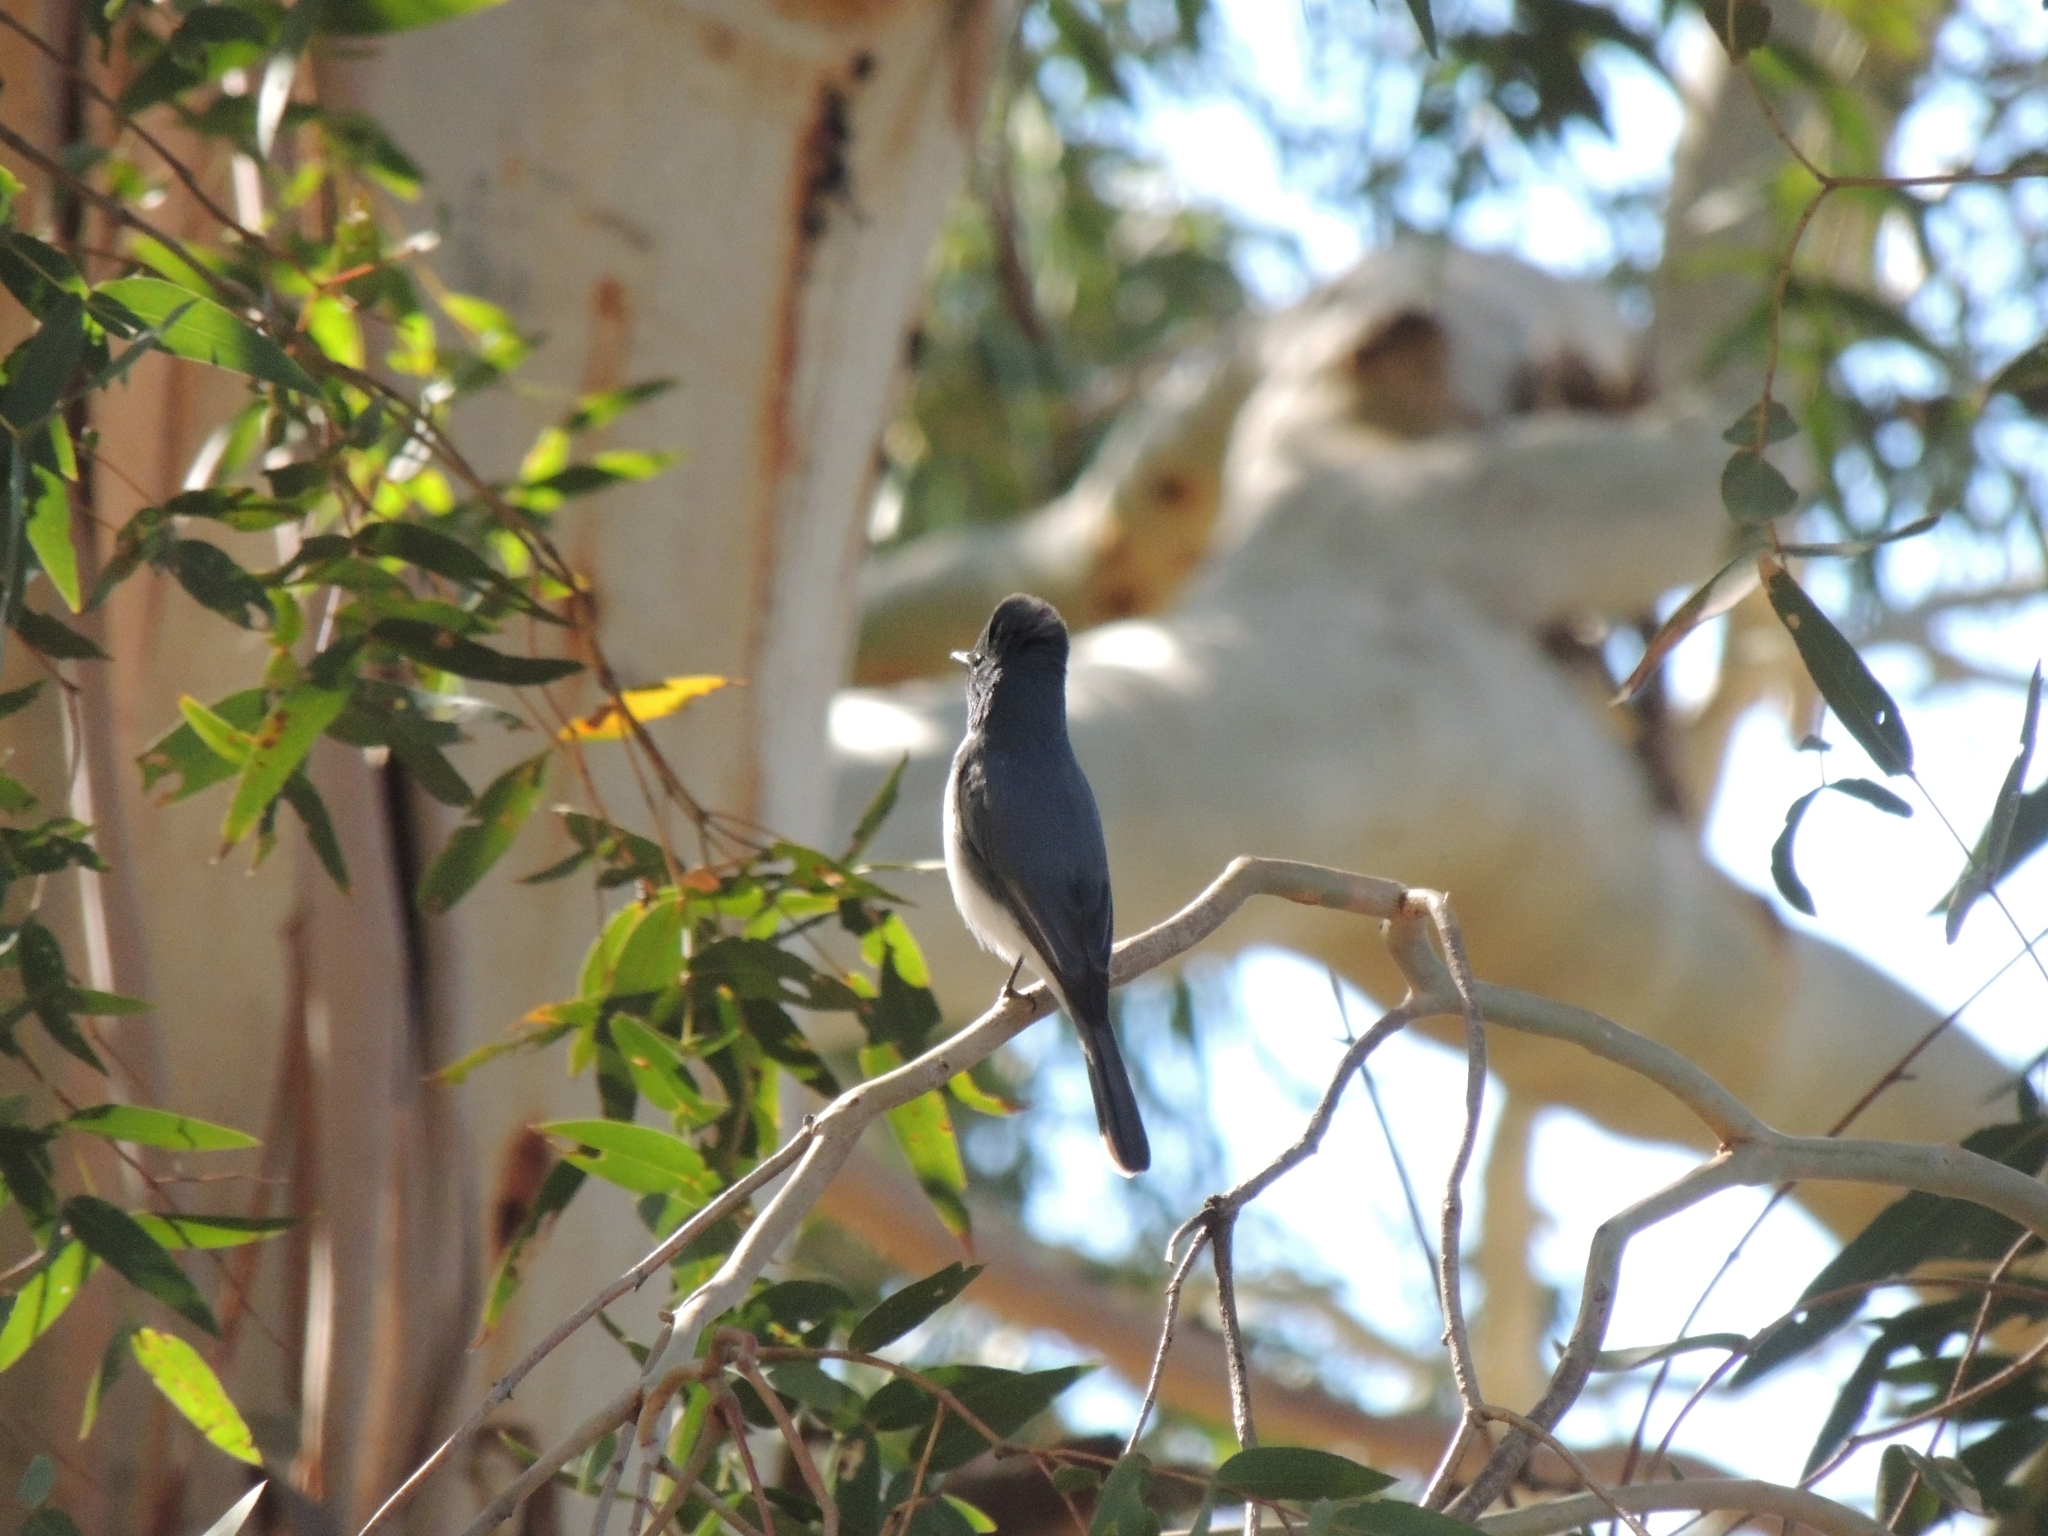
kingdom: Animalia
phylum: Chordata
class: Aves
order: Passeriformes
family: Monarchidae
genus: Myiagra
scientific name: Myiagra rubecula
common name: Leaden flycatcher
